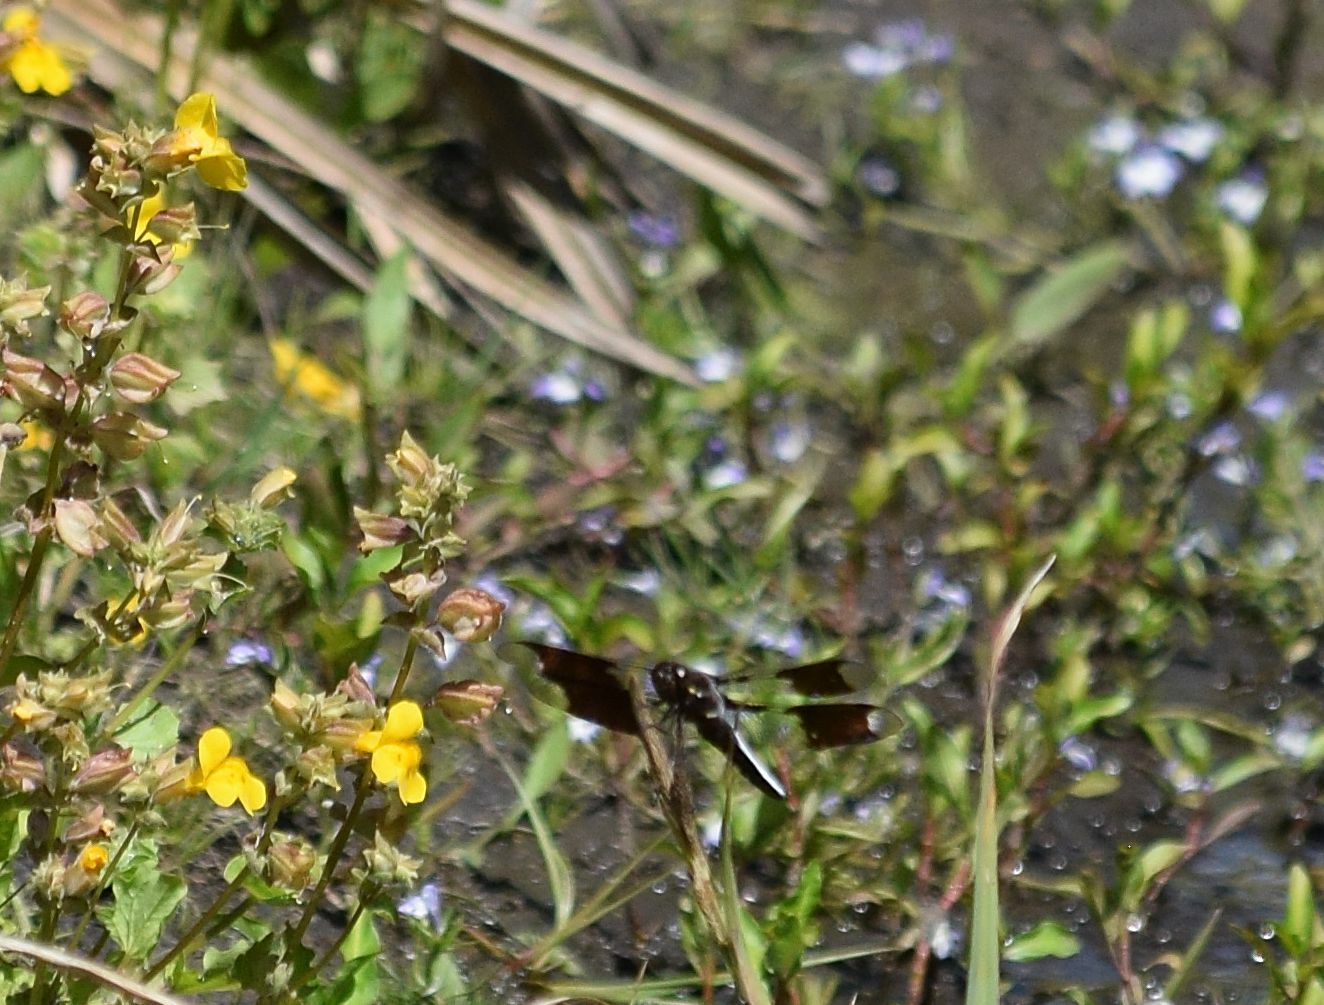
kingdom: Animalia
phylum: Arthropoda
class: Insecta
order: Odonata
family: Libellulidae
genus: Plathemis
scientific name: Plathemis lydia
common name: Common whitetail
